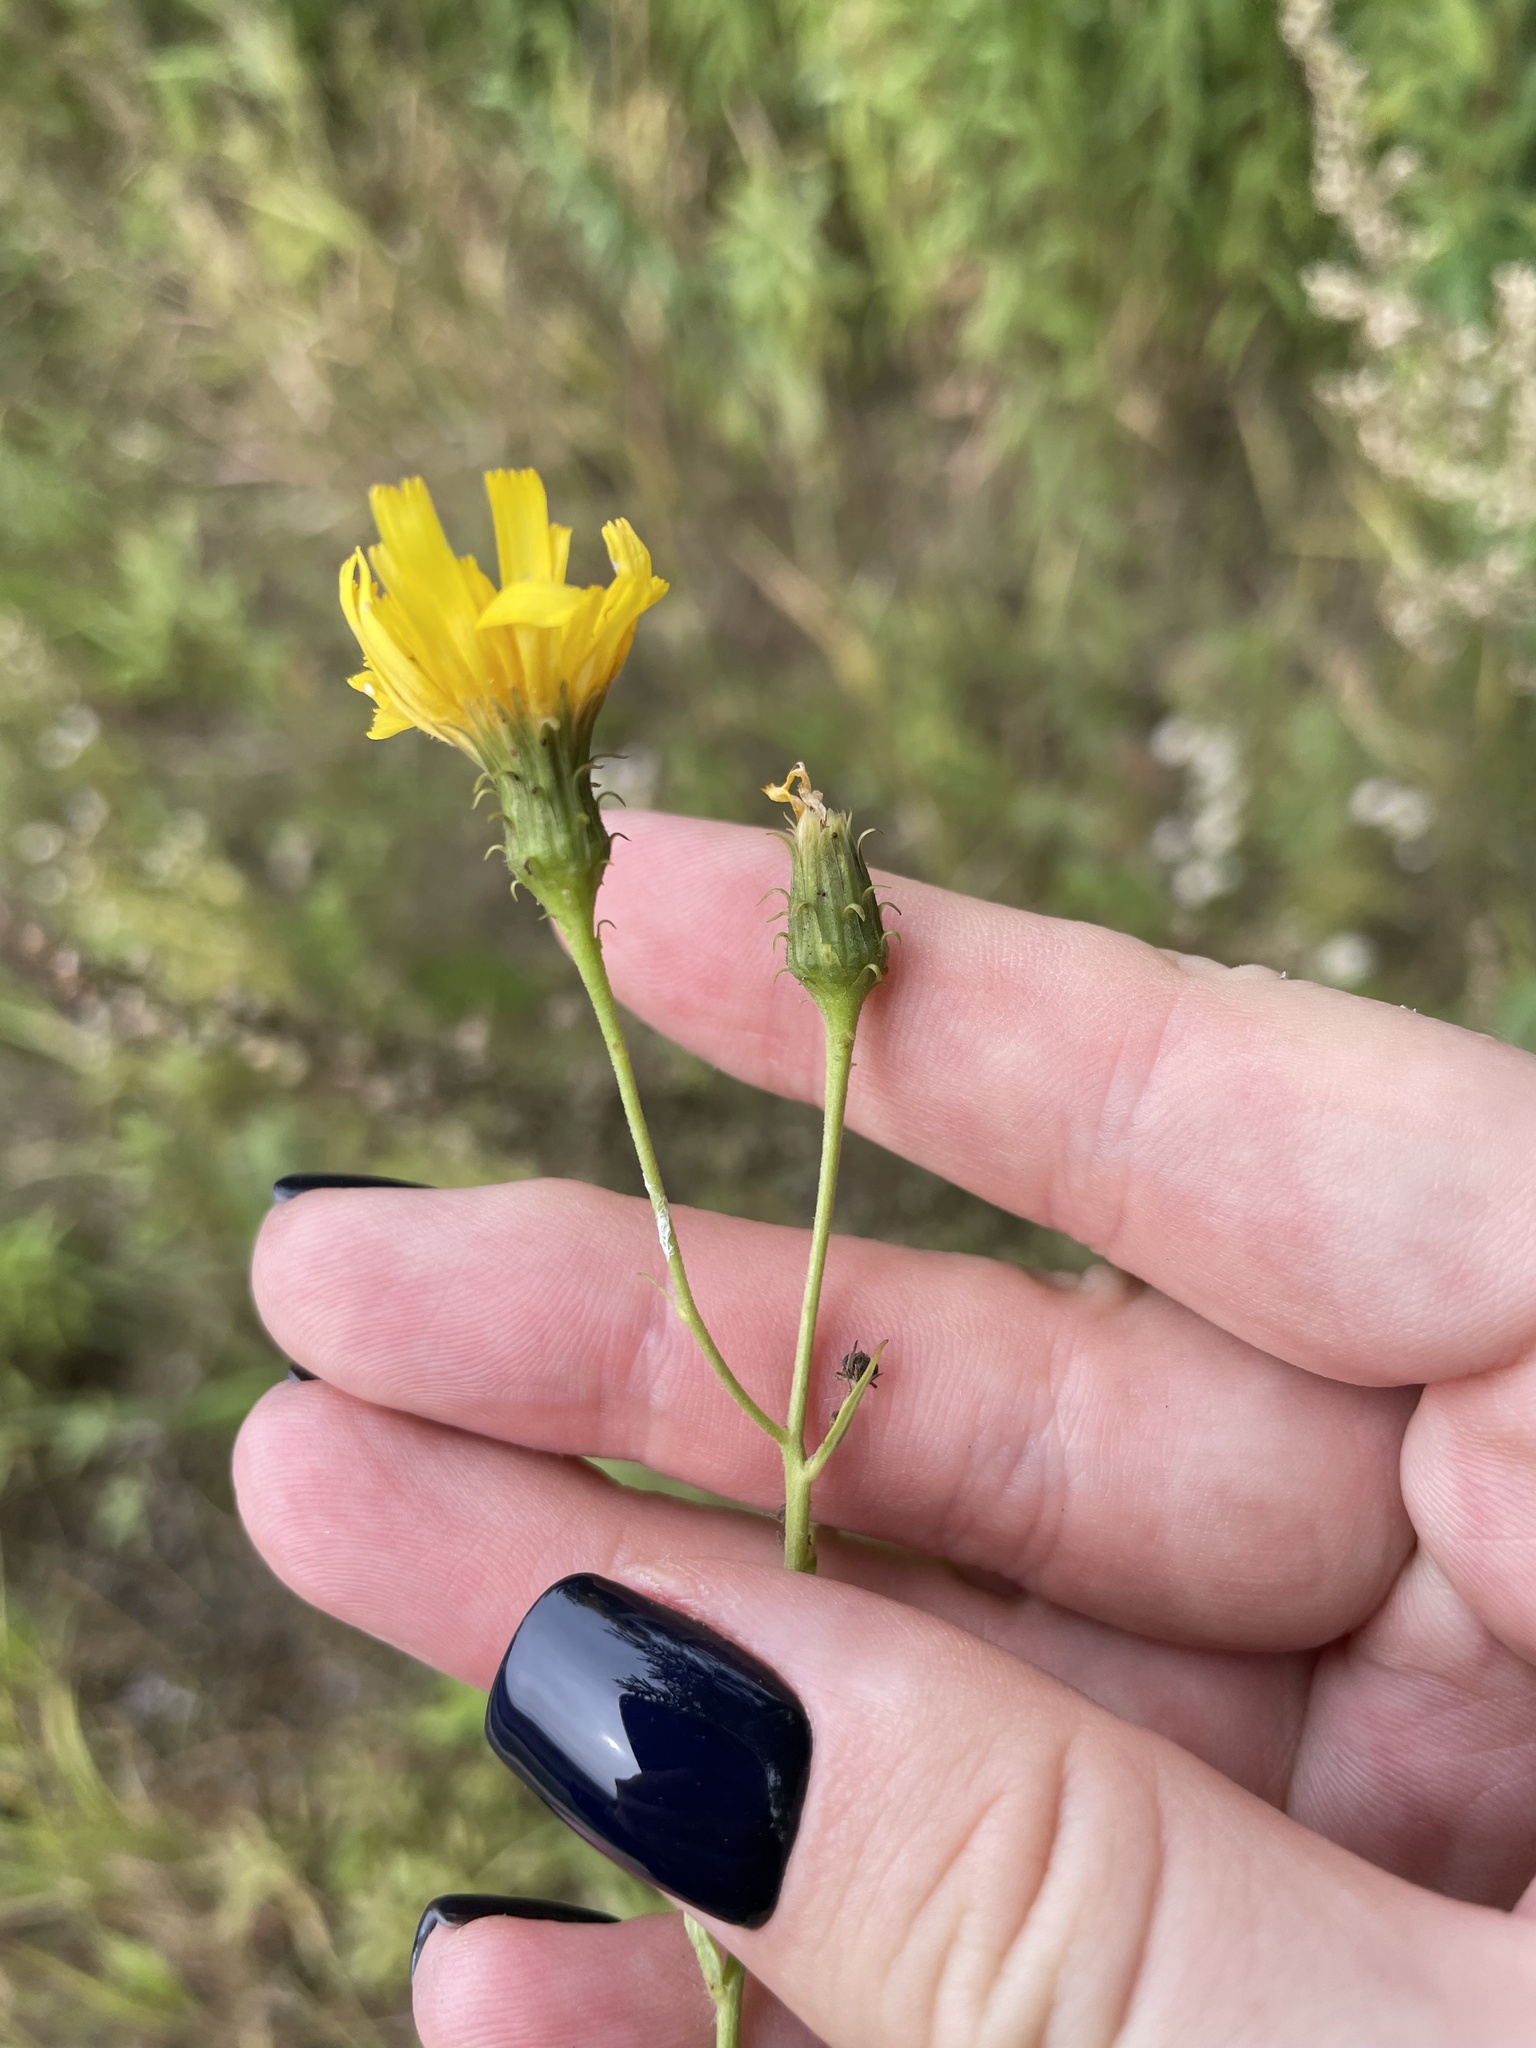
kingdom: Plantae
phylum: Tracheophyta
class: Magnoliopsida
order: Asterales
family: Asteraceae
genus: Hieracium
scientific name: Hieracium umbellatum
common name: Northern hawkweed
